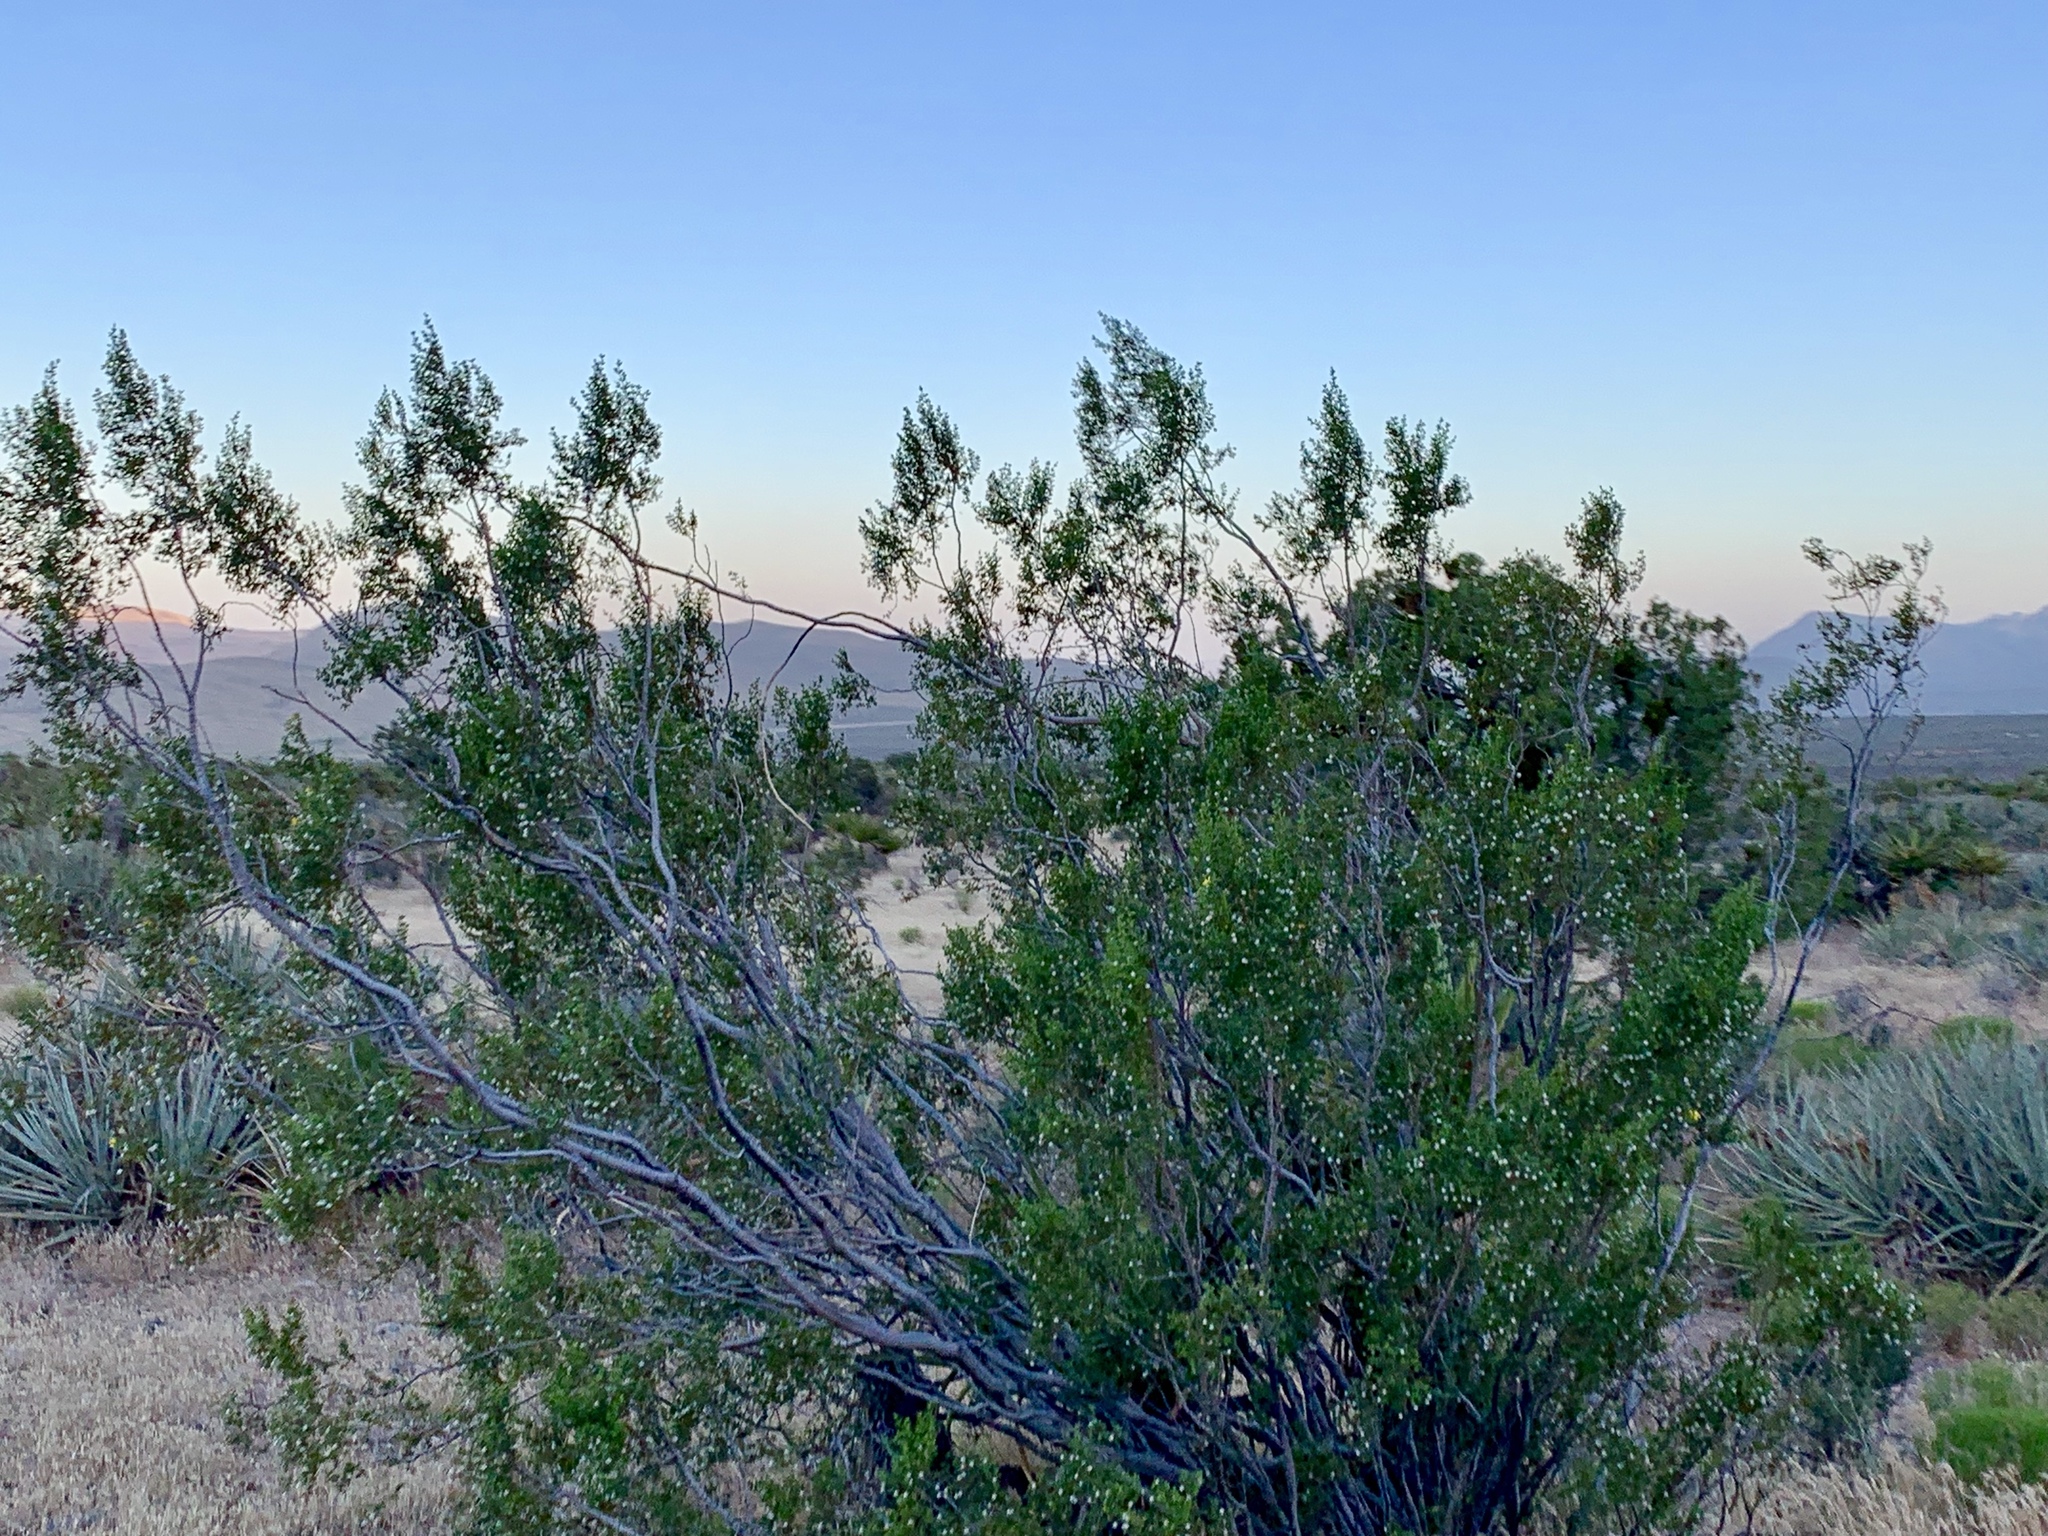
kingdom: Plantae
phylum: Tracheophyta
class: Magnoliopsida
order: Zygophyllales
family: Zygophyllaceae
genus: Larrea
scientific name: Larrea tridentata
